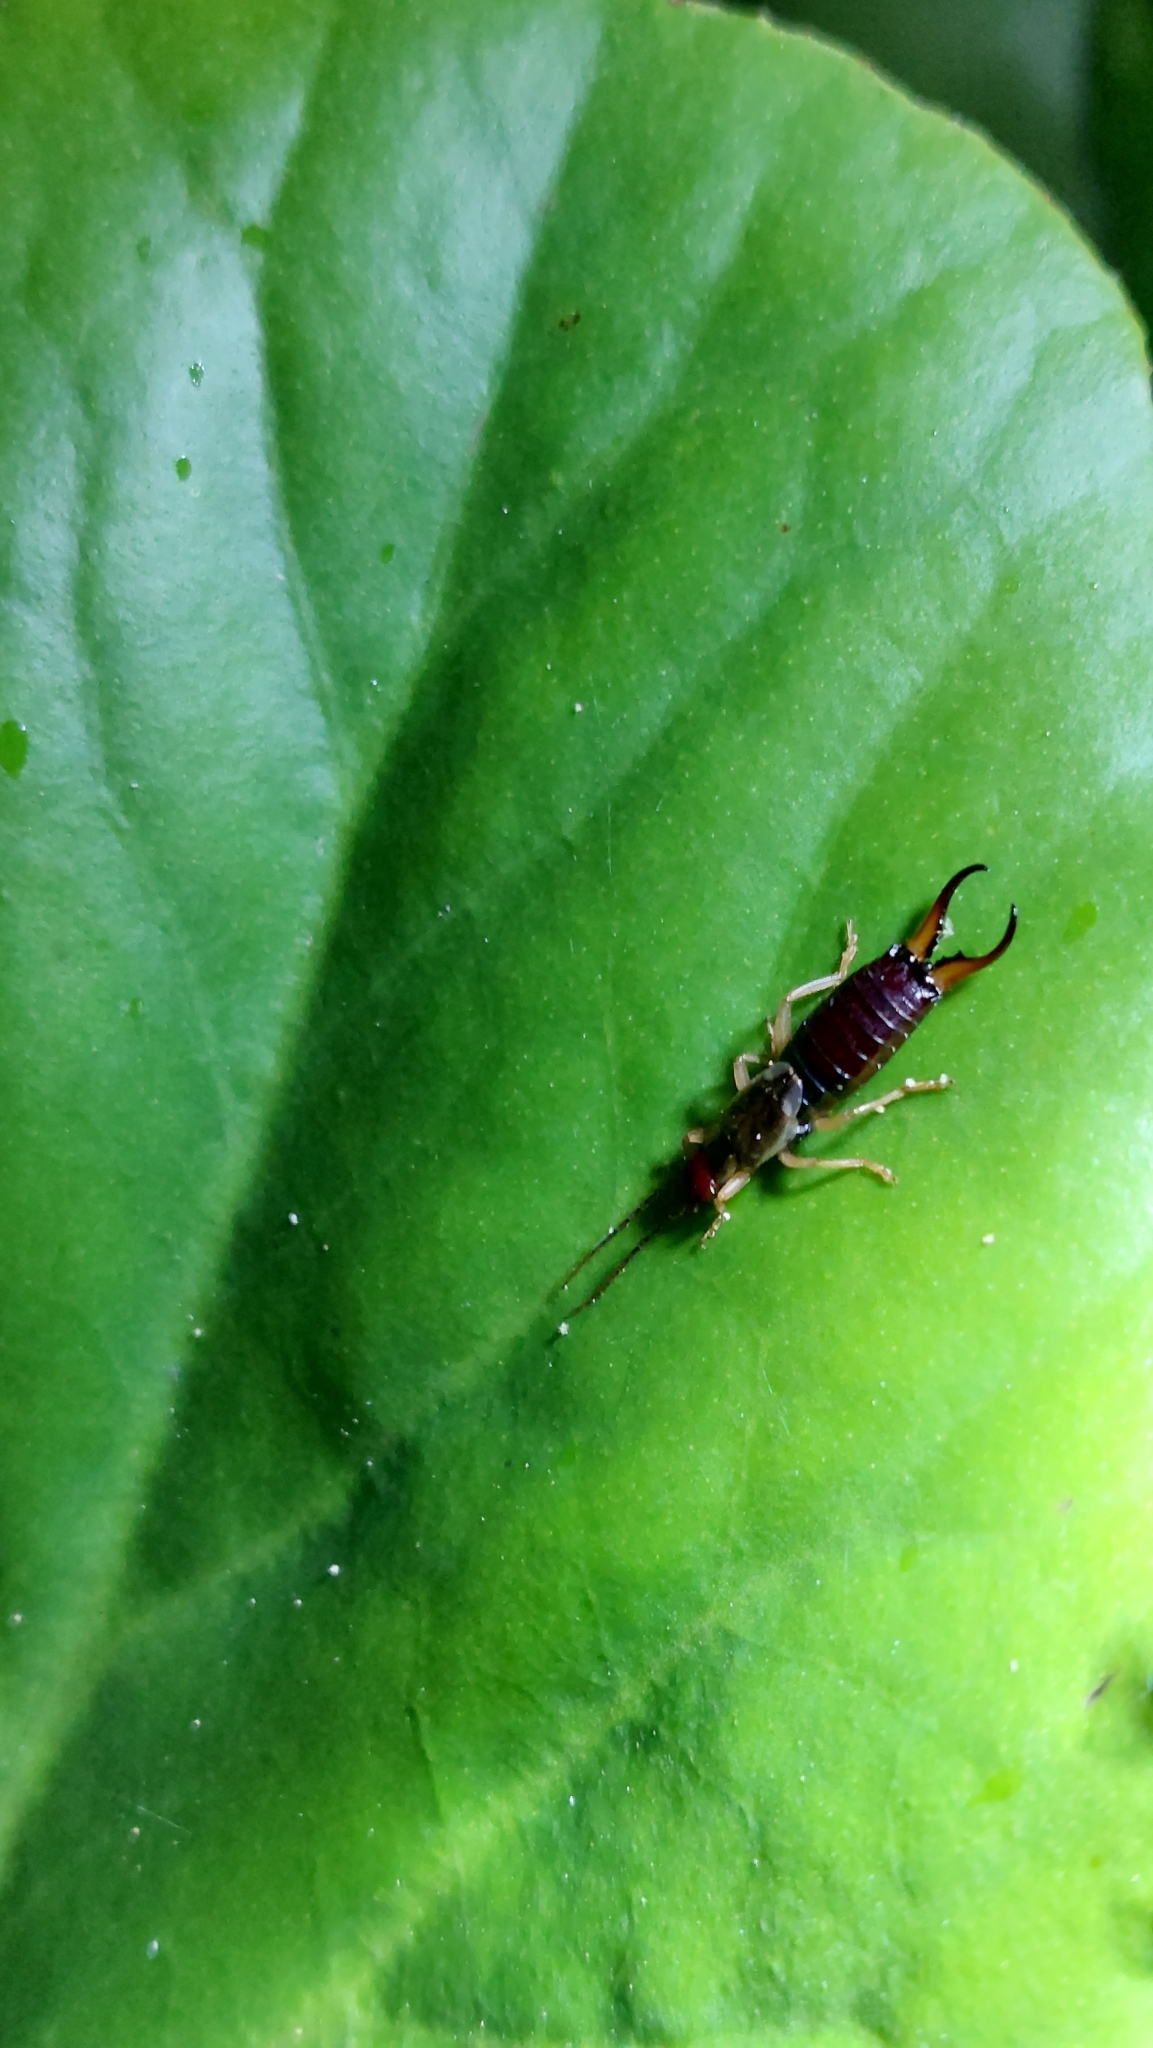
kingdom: Animalia
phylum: Arthropoda
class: Insecta
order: Dermaptera
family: Forficulidae
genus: Forficula
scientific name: Forficula
